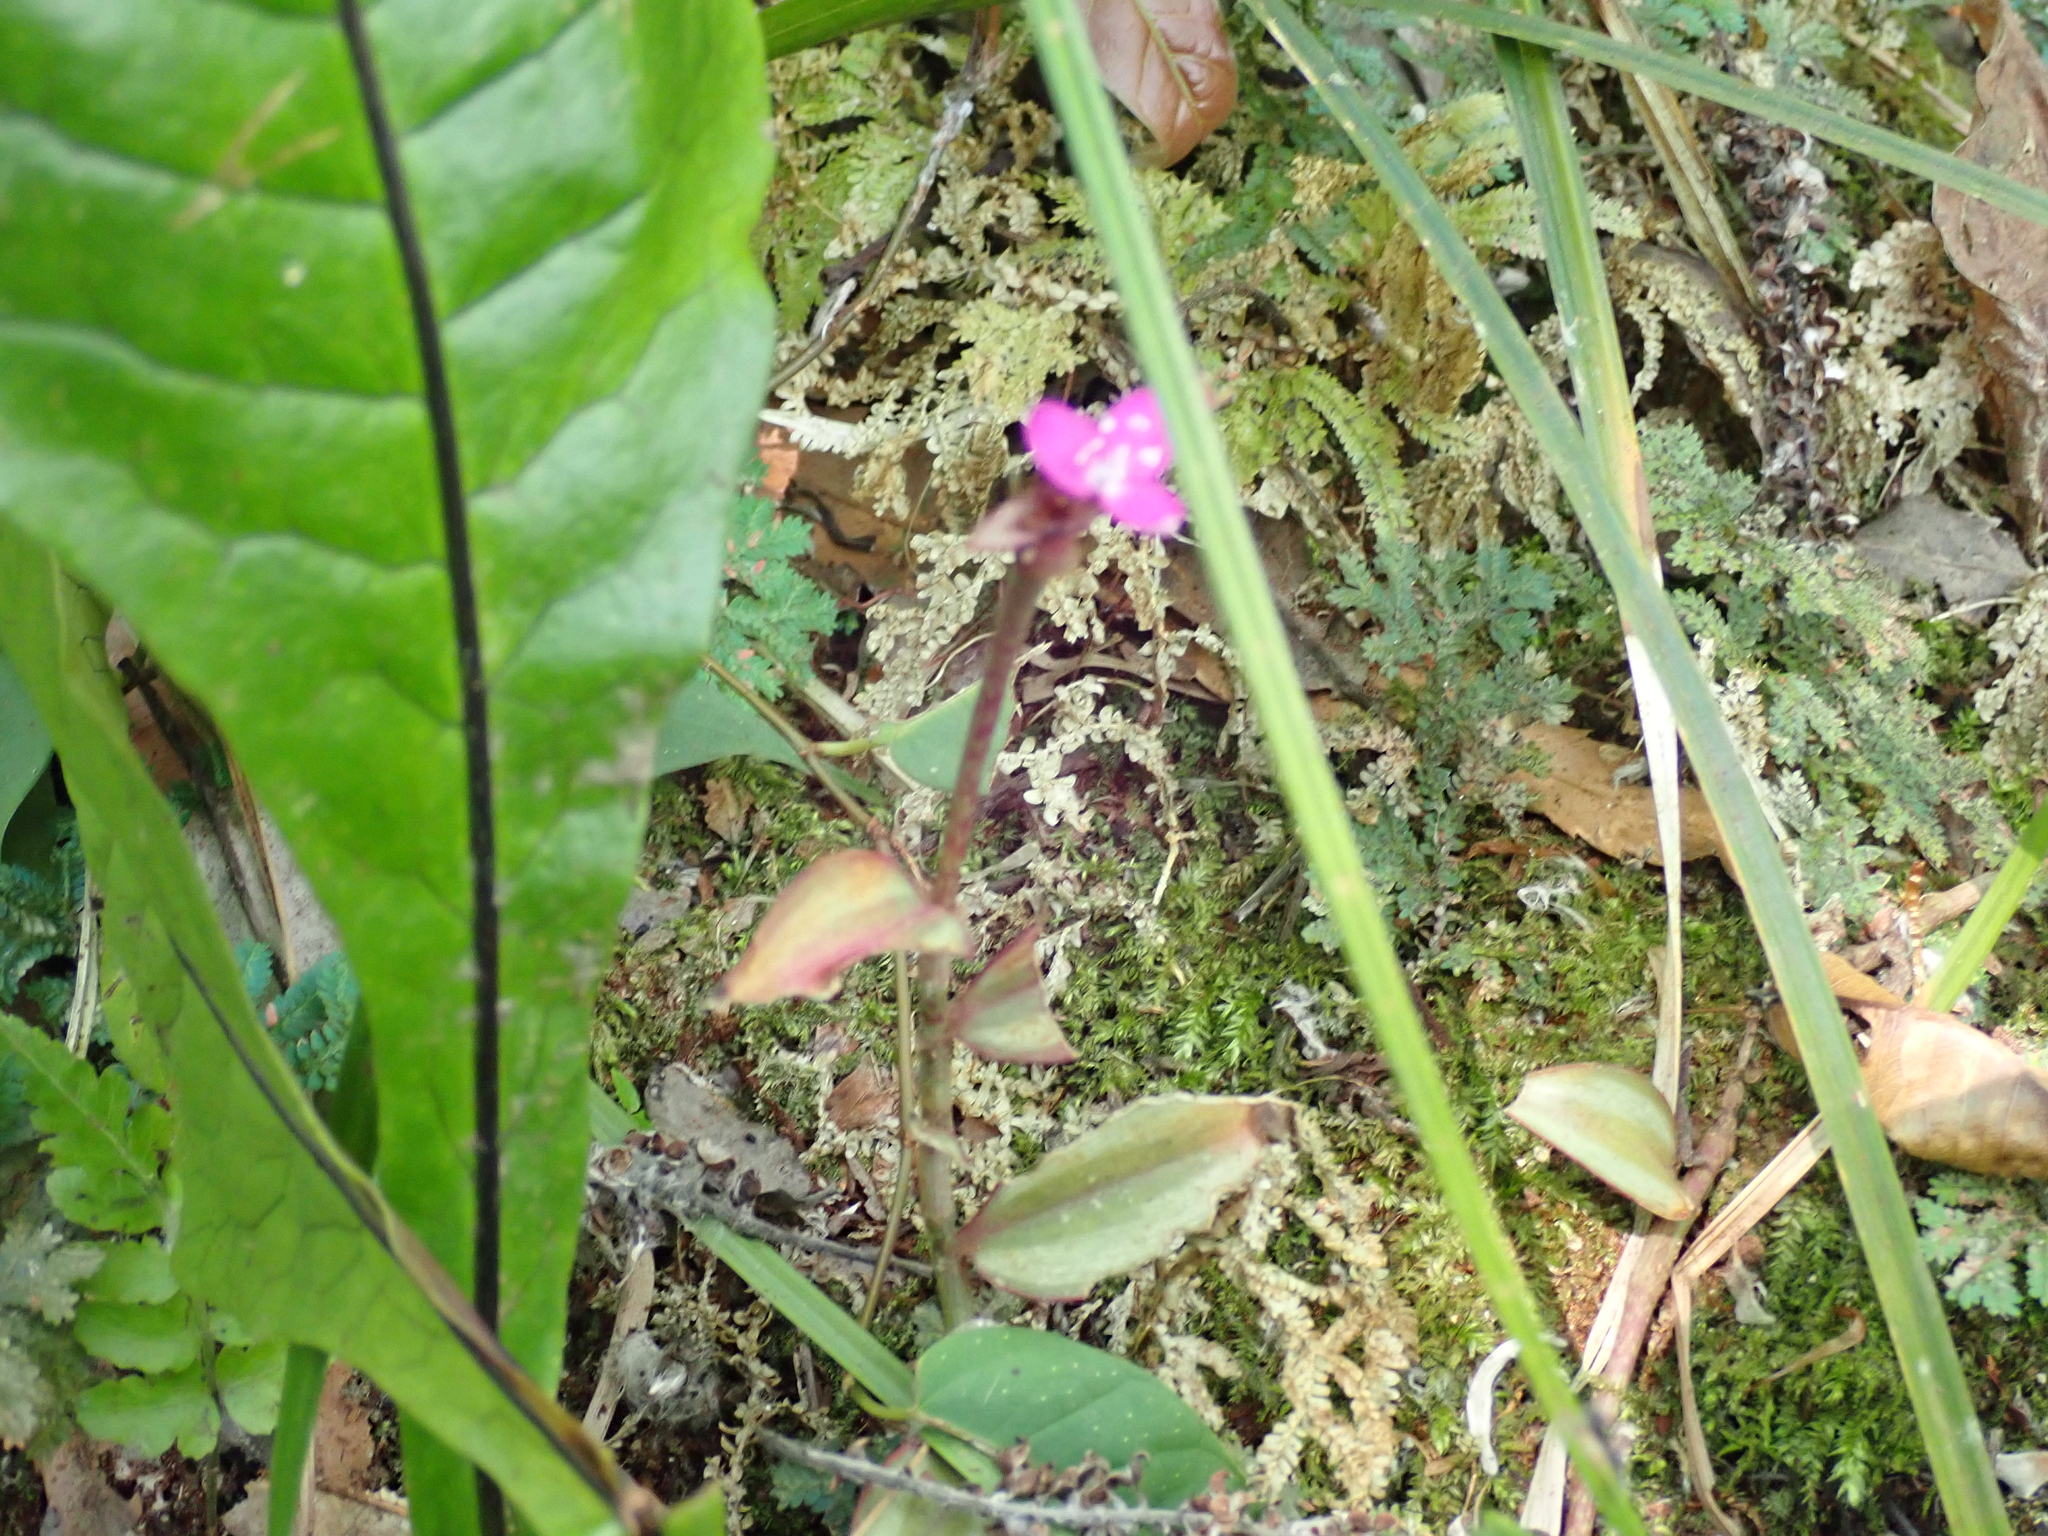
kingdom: Plantae
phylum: Tracheophyta
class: Liliopsida
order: Commelinales
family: Commelinaceae
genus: Tradescantia
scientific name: Tradescantia zebrina
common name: Inchplant
